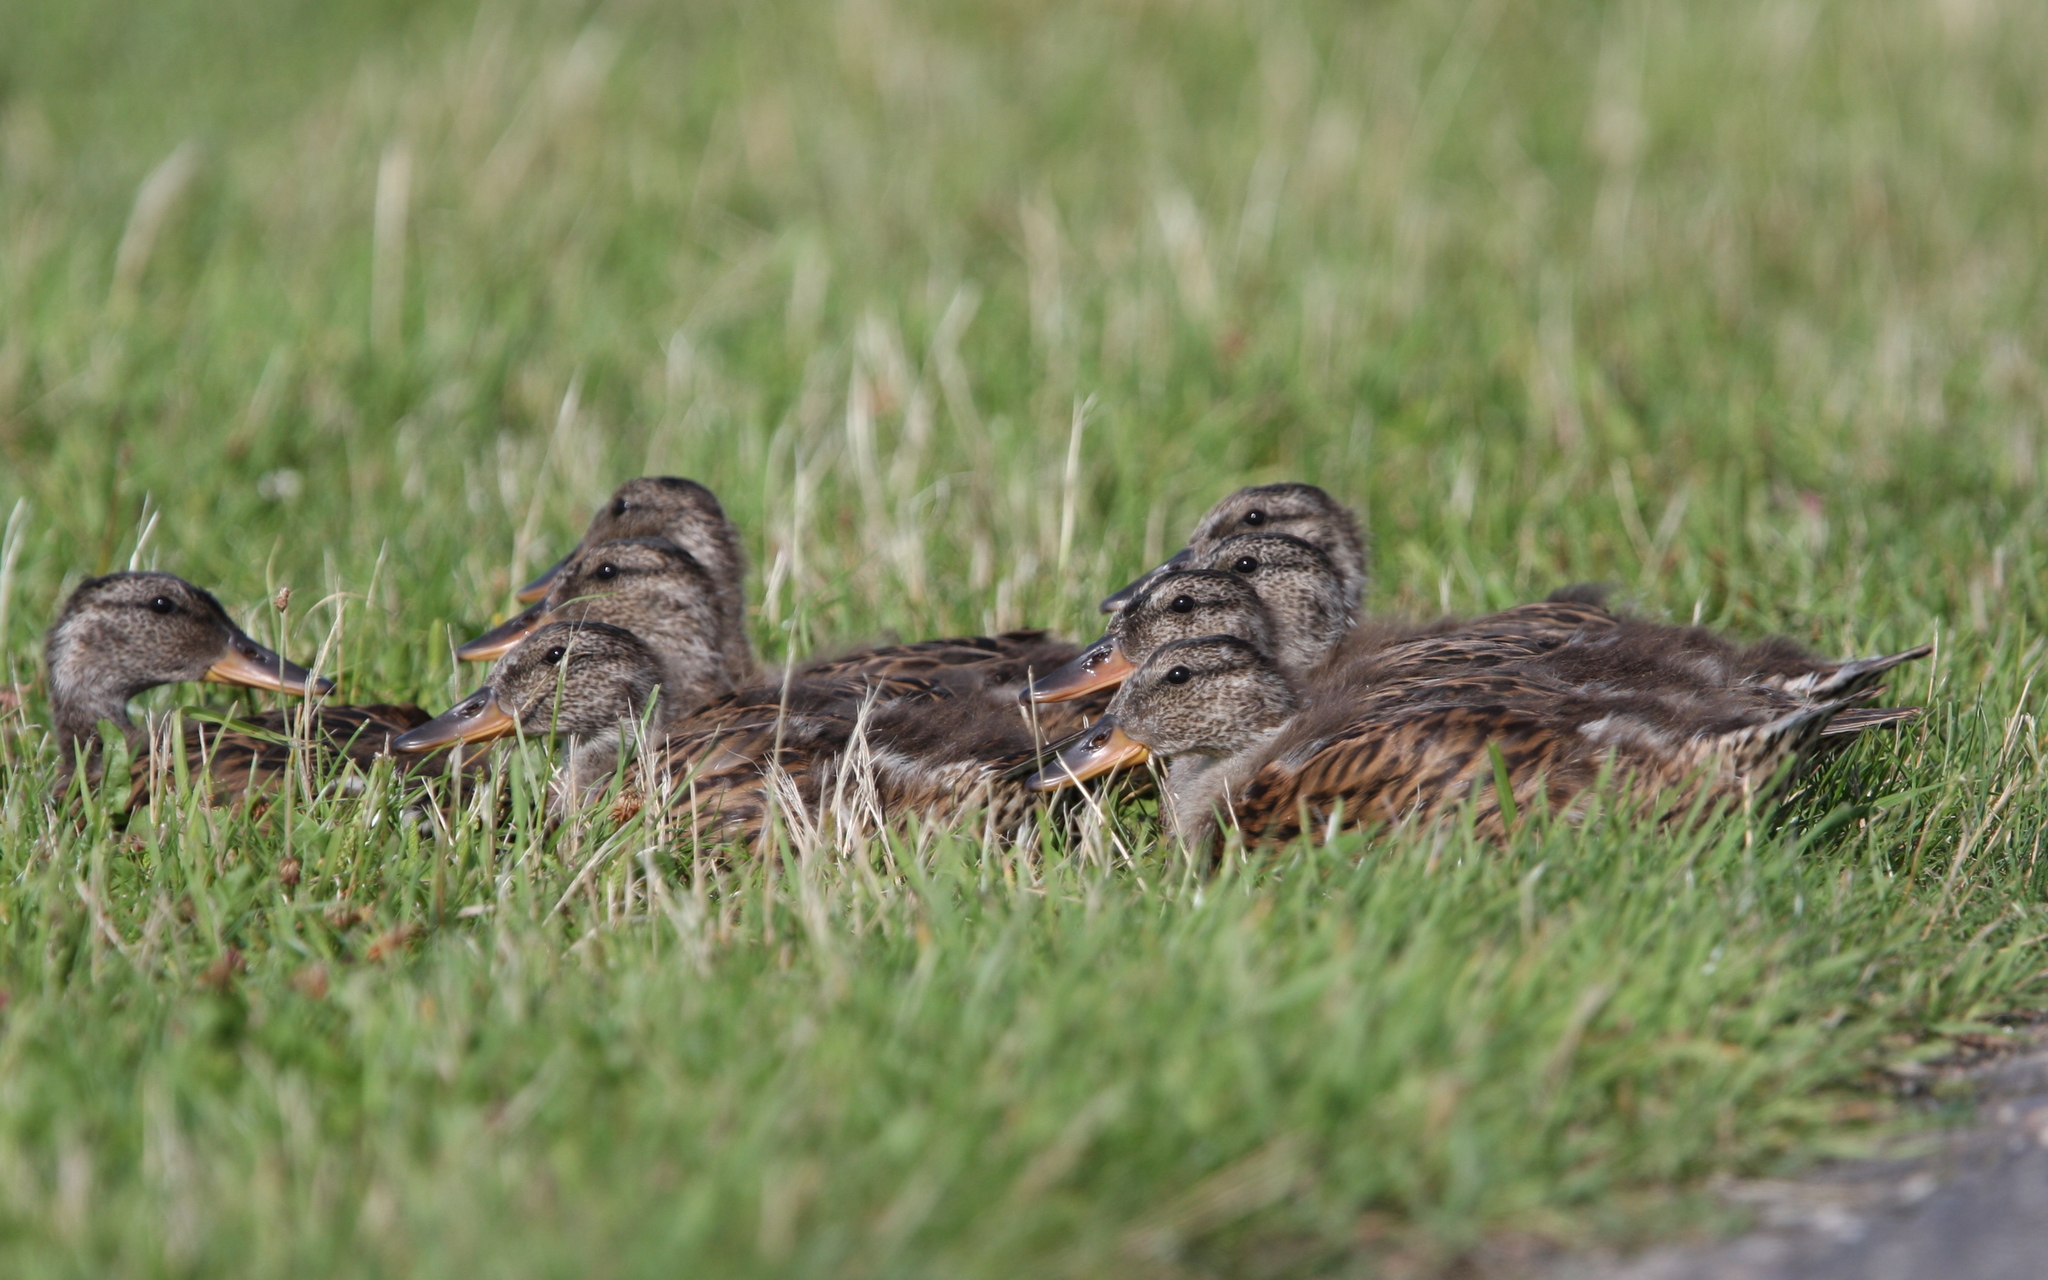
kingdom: Animalia
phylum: Chordata
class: Aves
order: Anseriformes
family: Anatidae
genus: Anas
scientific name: Anas platyrhynchos
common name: Mallard
